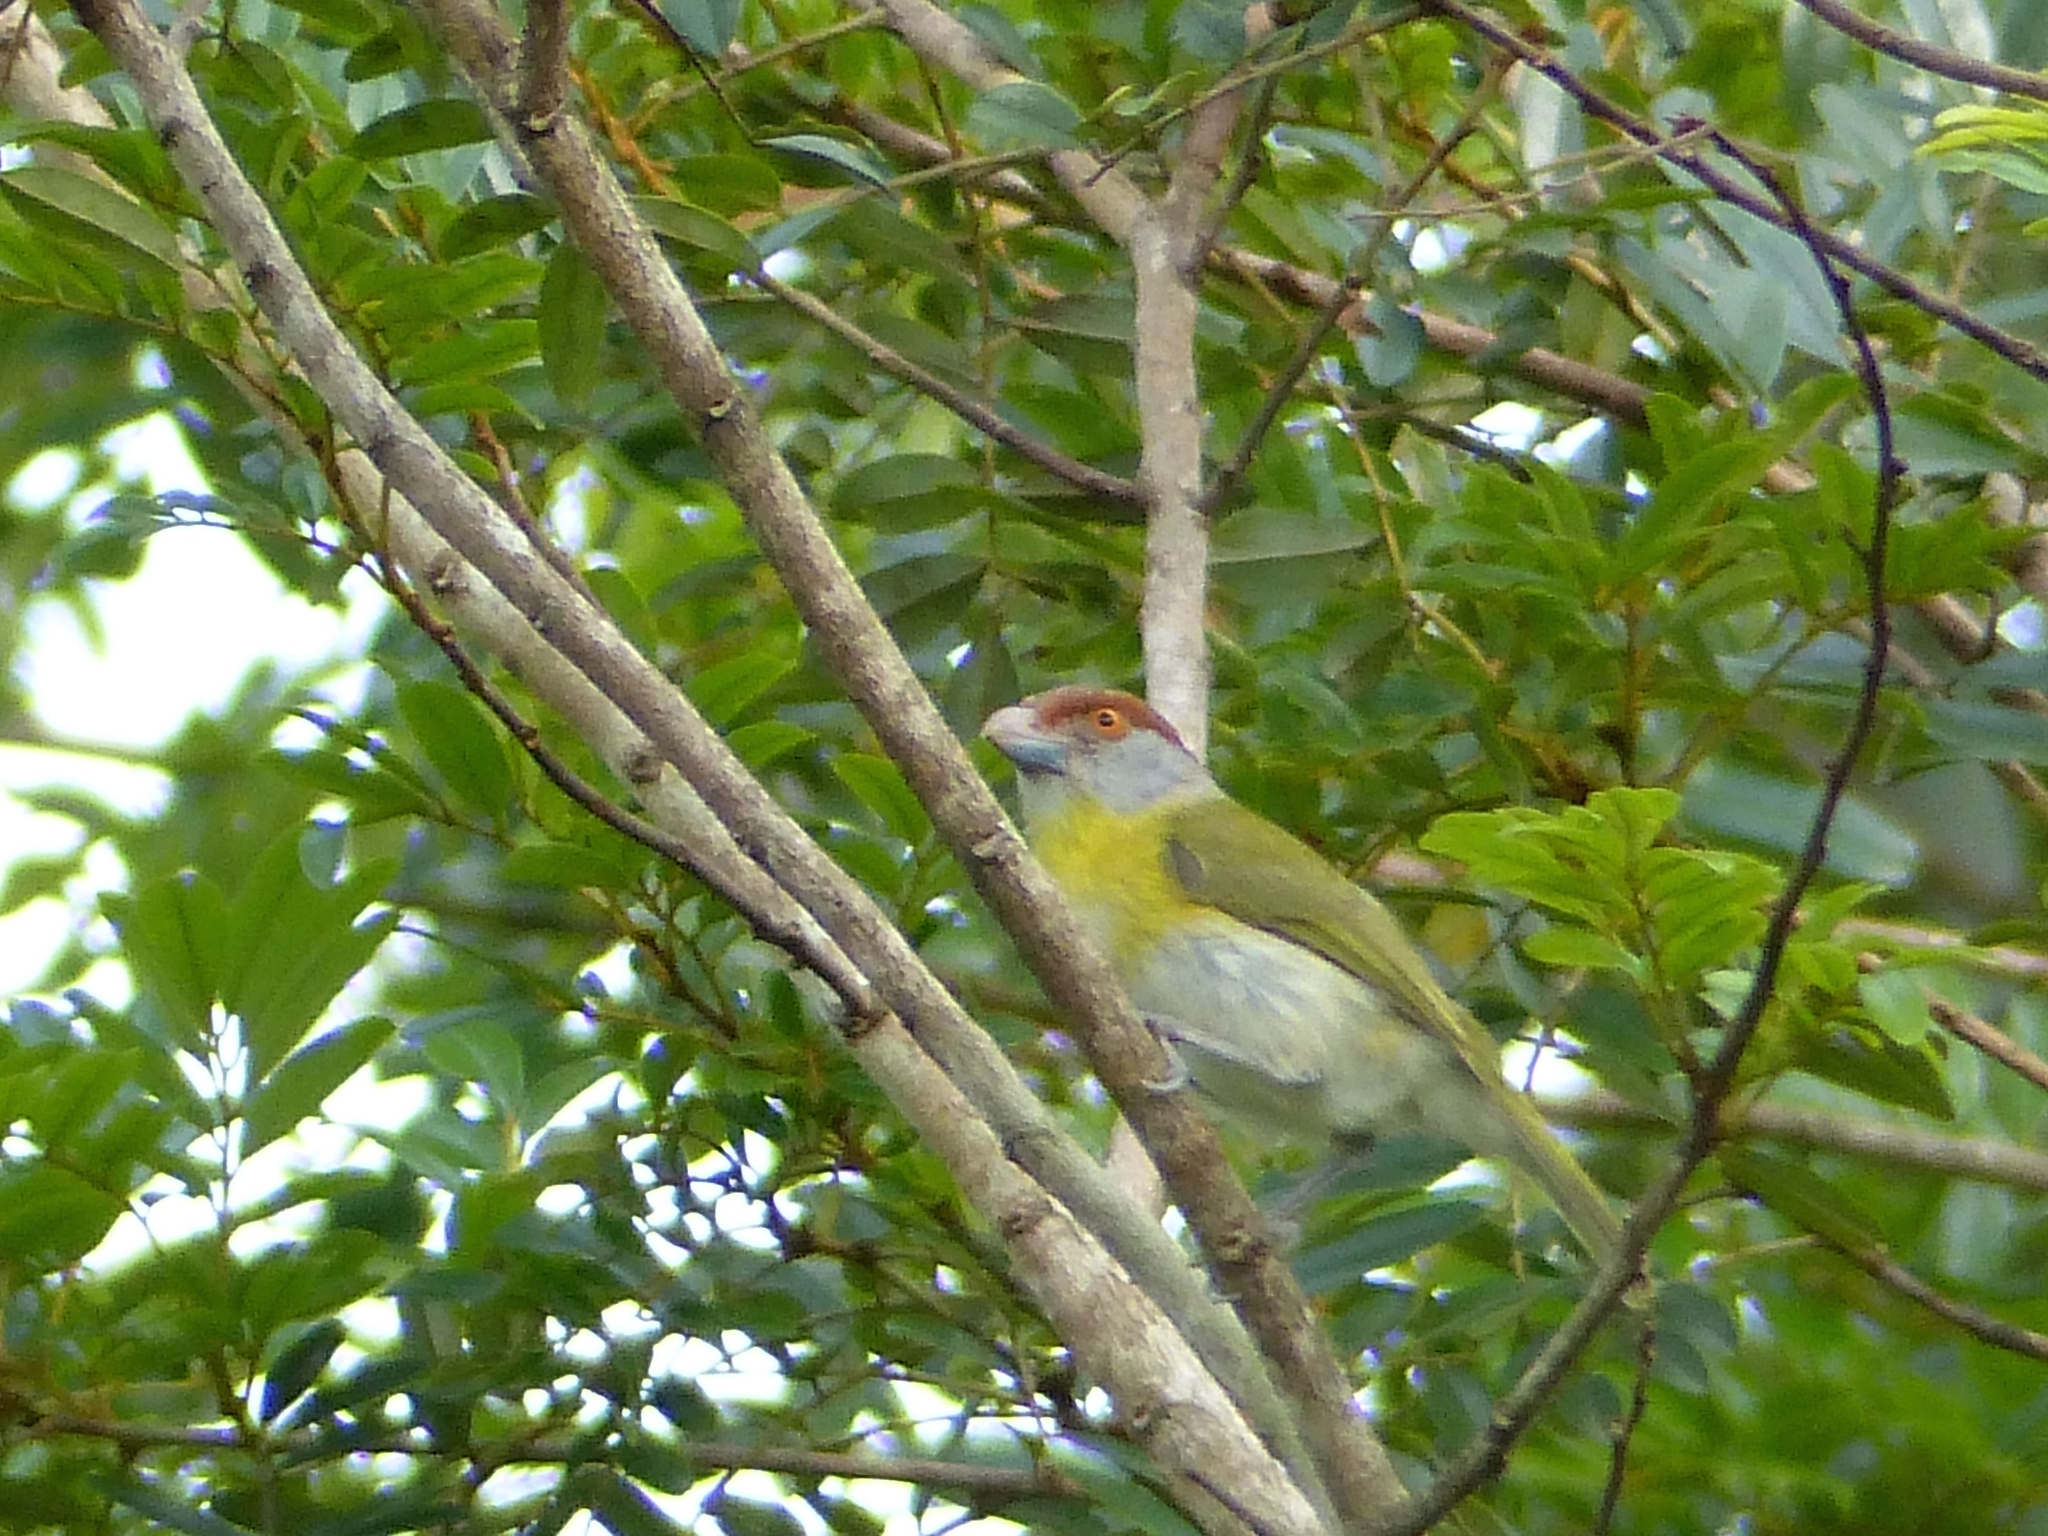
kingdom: Animalia
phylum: Chordata
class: Aves
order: Passeriformes
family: Vireonidae
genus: Cyclarhis
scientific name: Cyclarhis gujanensis
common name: Rufous-browed peppershrike
